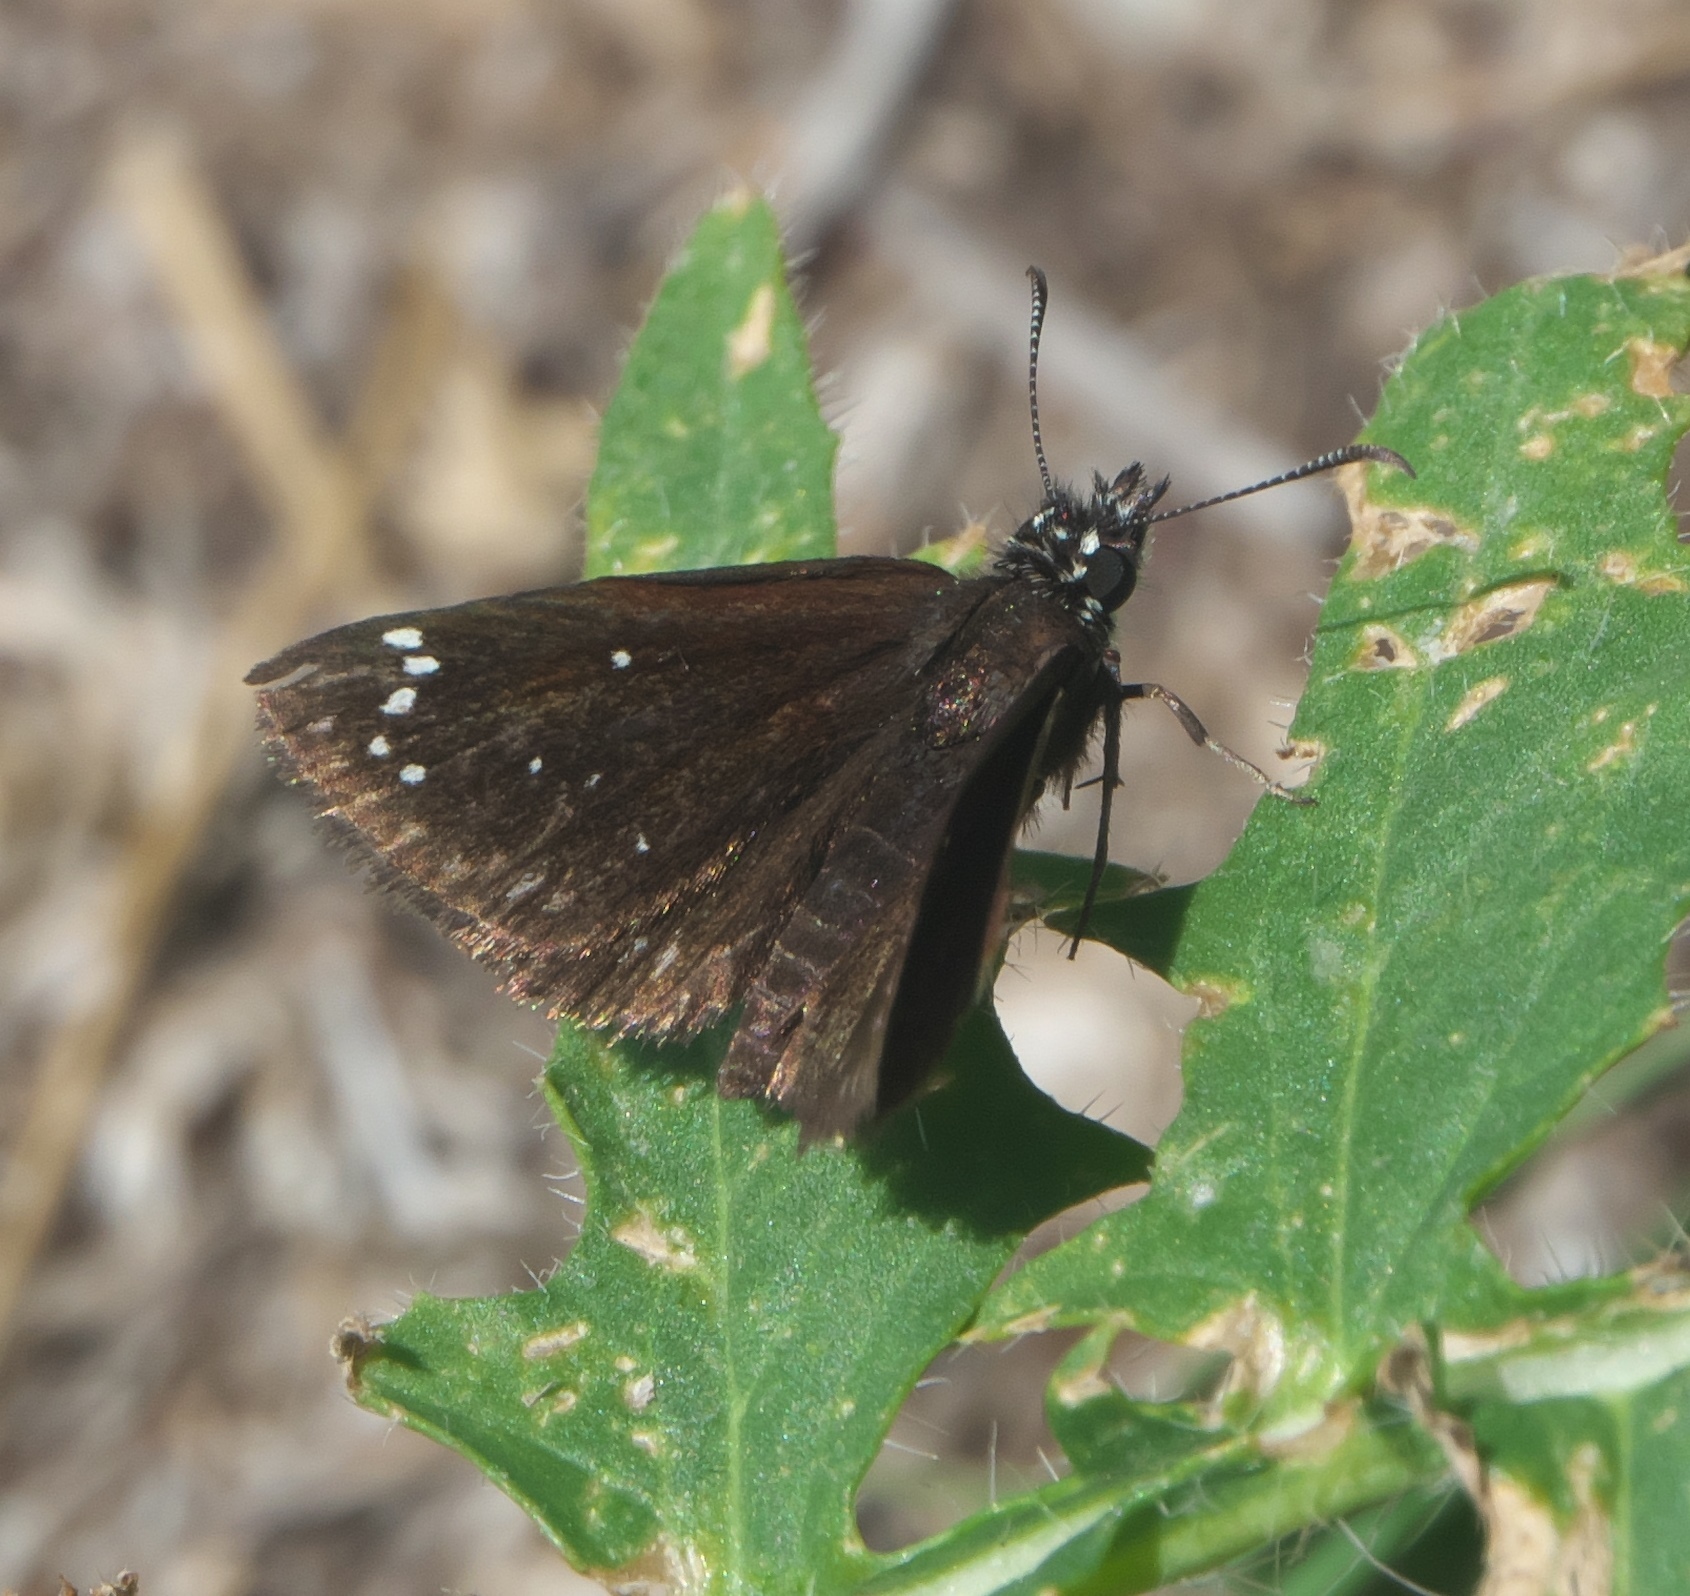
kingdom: Animalia
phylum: Arthropoda
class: Insecta
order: Lepidoptera
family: Hesperiidae
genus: Pholisora
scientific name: Pholisora catullus
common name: Common sootywing
